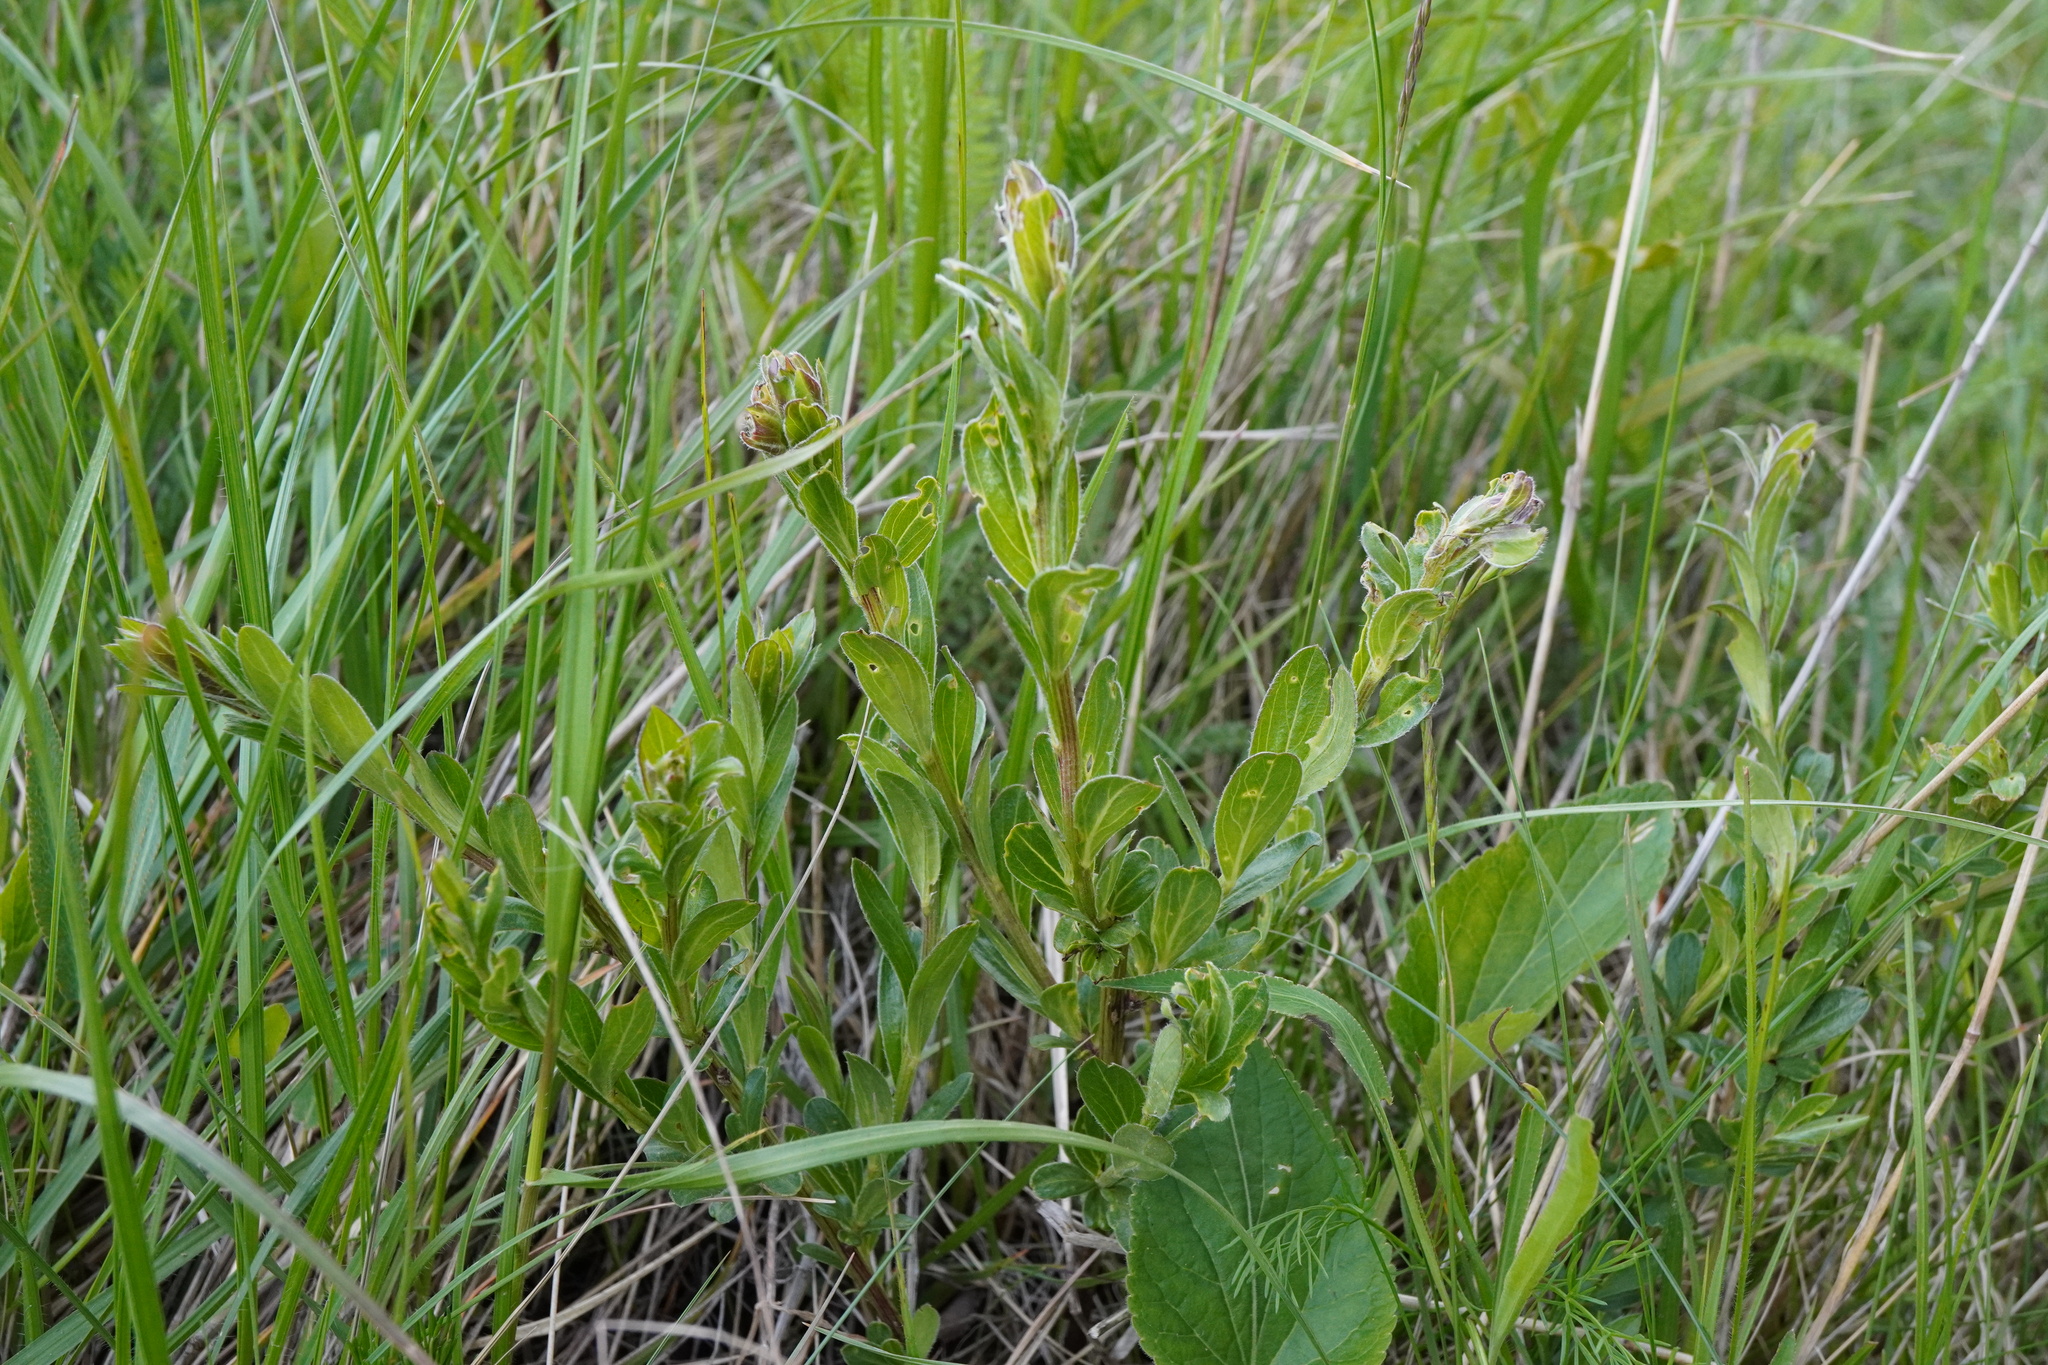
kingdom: Plantae
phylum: Tracheophyta
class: Magnoliopsida
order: Fabales
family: Fabaceae
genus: Genista
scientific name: Genista tinctoria
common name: Dyer's greenweed
